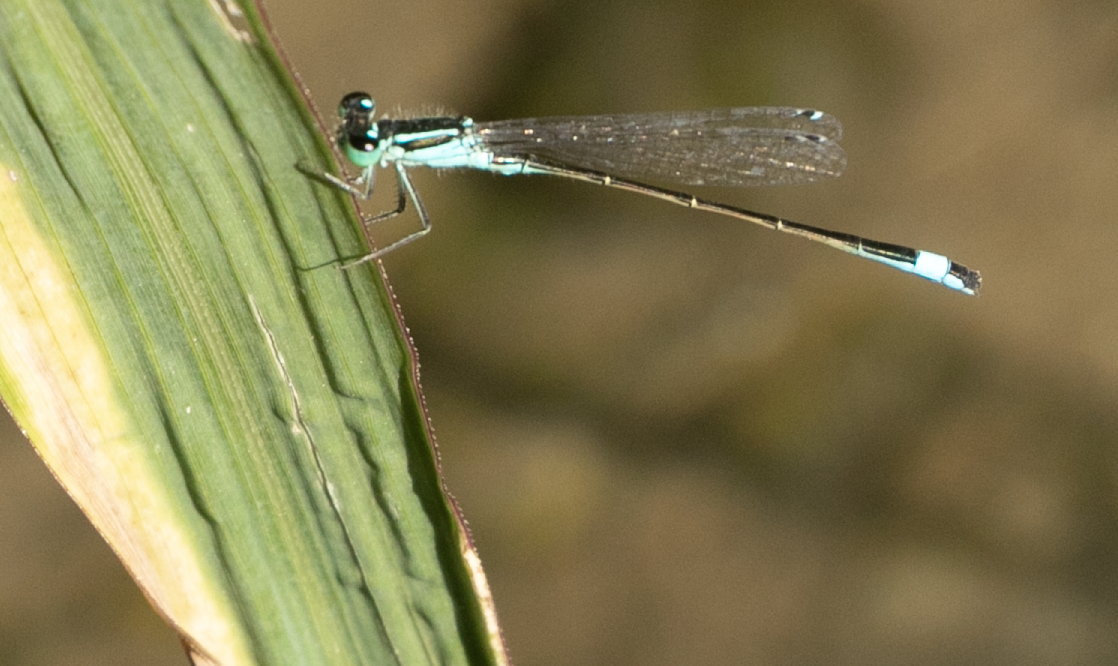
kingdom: Animalia
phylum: Arthropoda
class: Insecta
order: Odonata
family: Coenagrionidae
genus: Ischnura
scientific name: Ischnura elegans
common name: Blue-tailed damselfly
